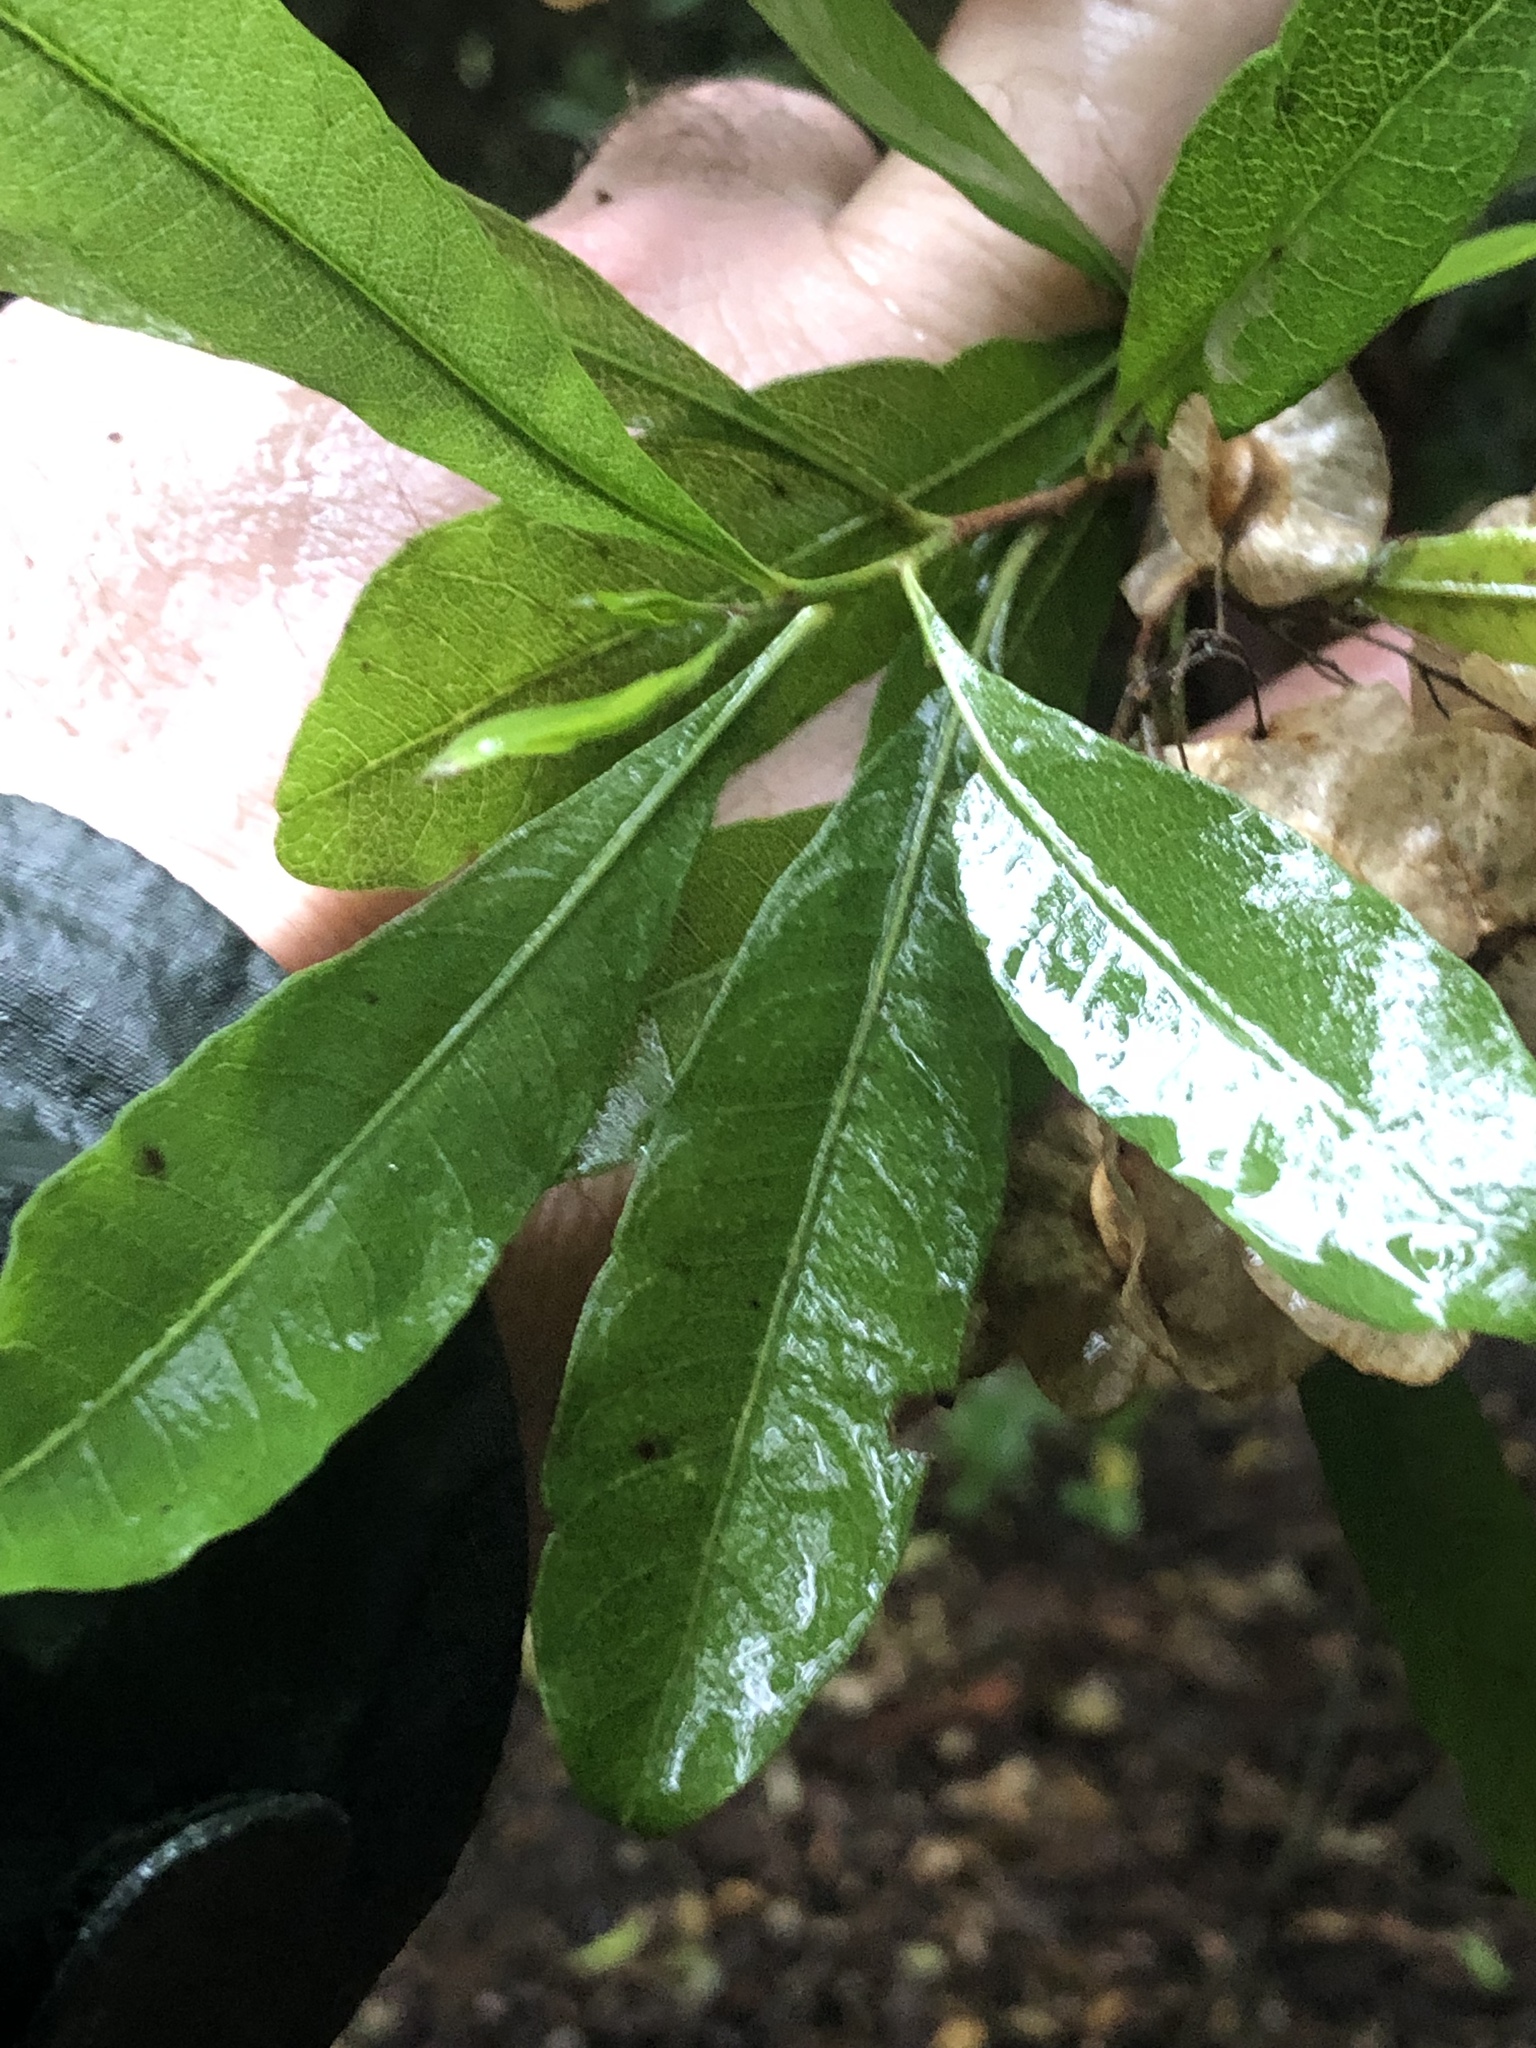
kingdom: Plantae
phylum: Tracheophyta
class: Magnoliopsida
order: Sapindales
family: Sapindaceae
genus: Dodonaea
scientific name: Dodonaea viscosa
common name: Hopbush
